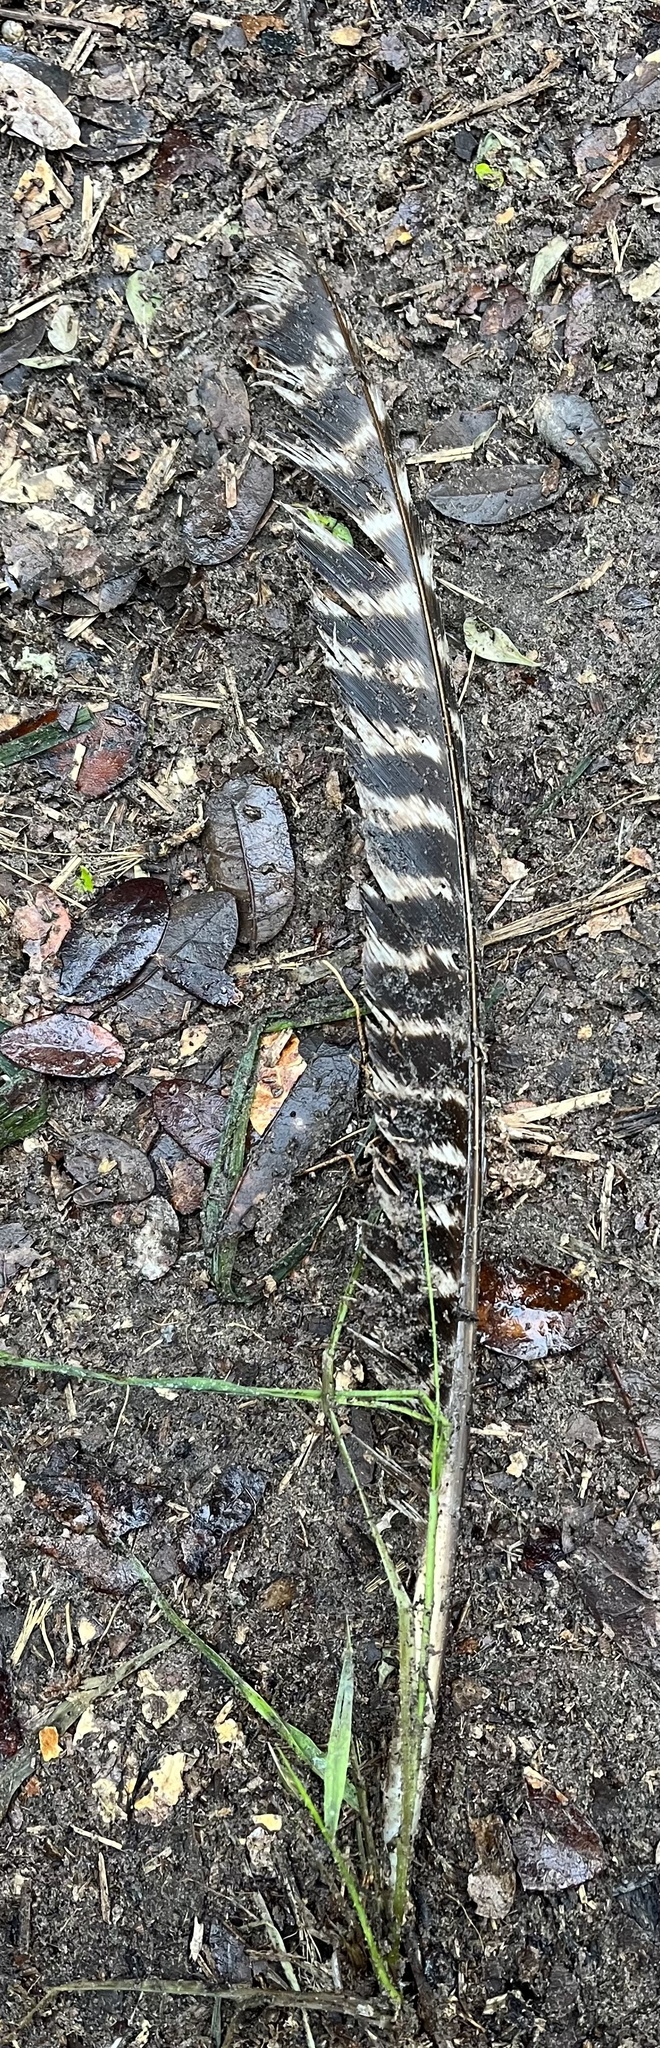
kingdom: Animalia
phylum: Chordata
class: Aves
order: Galliformes
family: Phasianidae
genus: Meleagris
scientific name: Meleagris gallopavo
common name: Wild turkey
